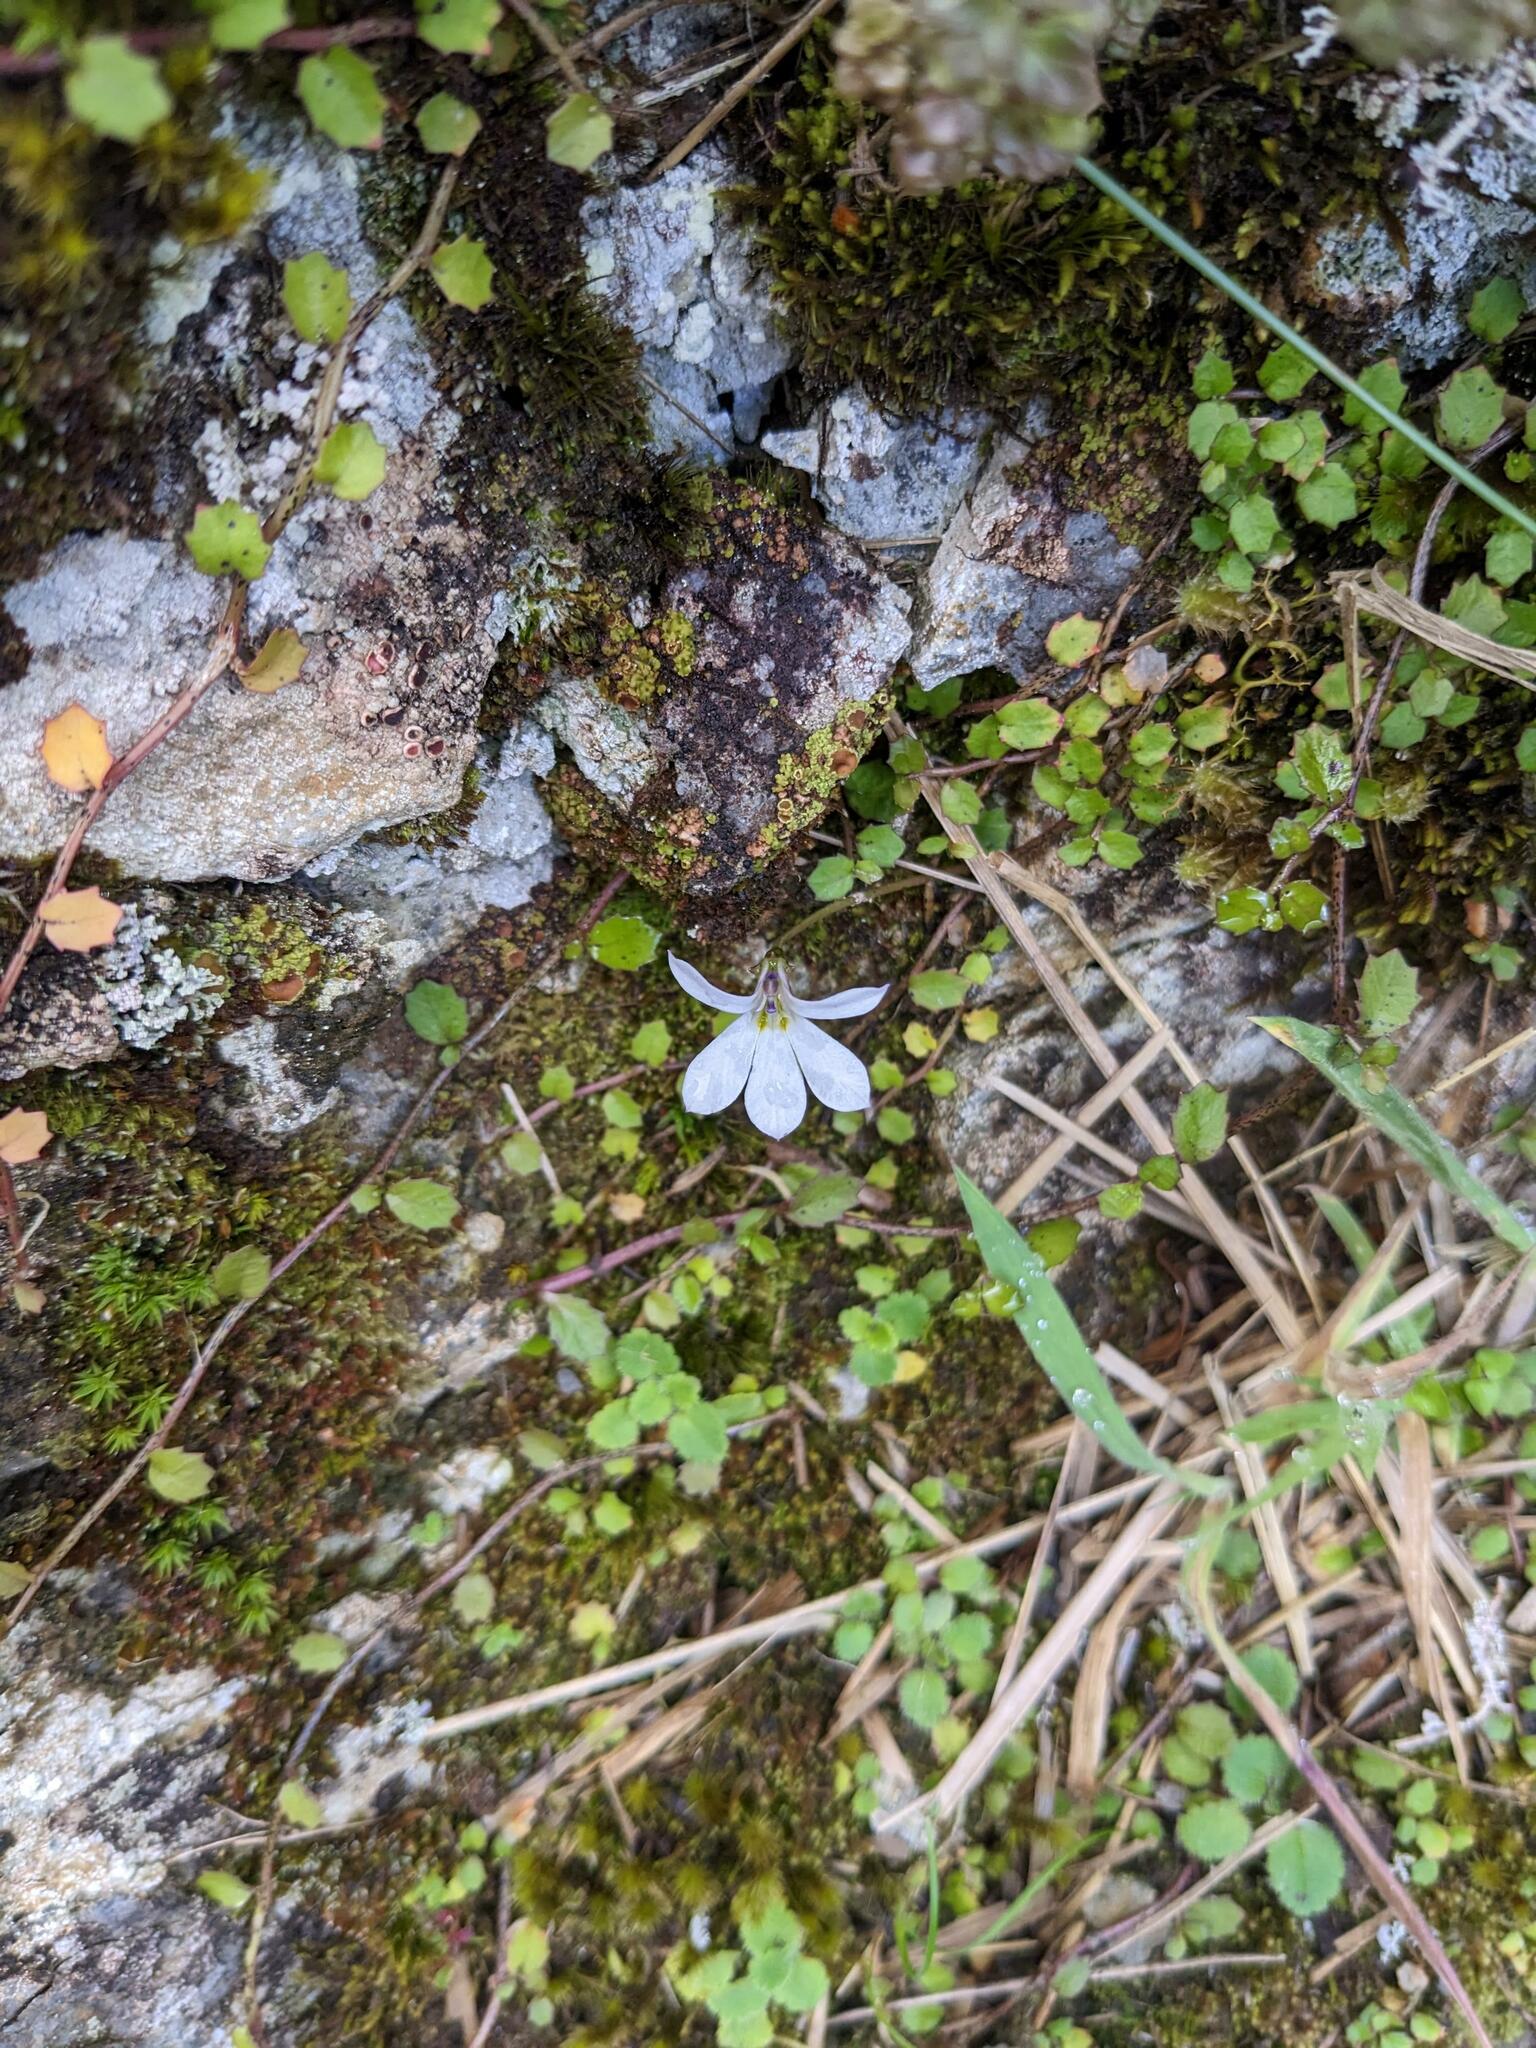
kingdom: Plantae
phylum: Tracheophyta
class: Magnoliopsida
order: Asterales
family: Campanulaceae
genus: Lobelia
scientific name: Lobelia angulata
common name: Lawn lobelia
